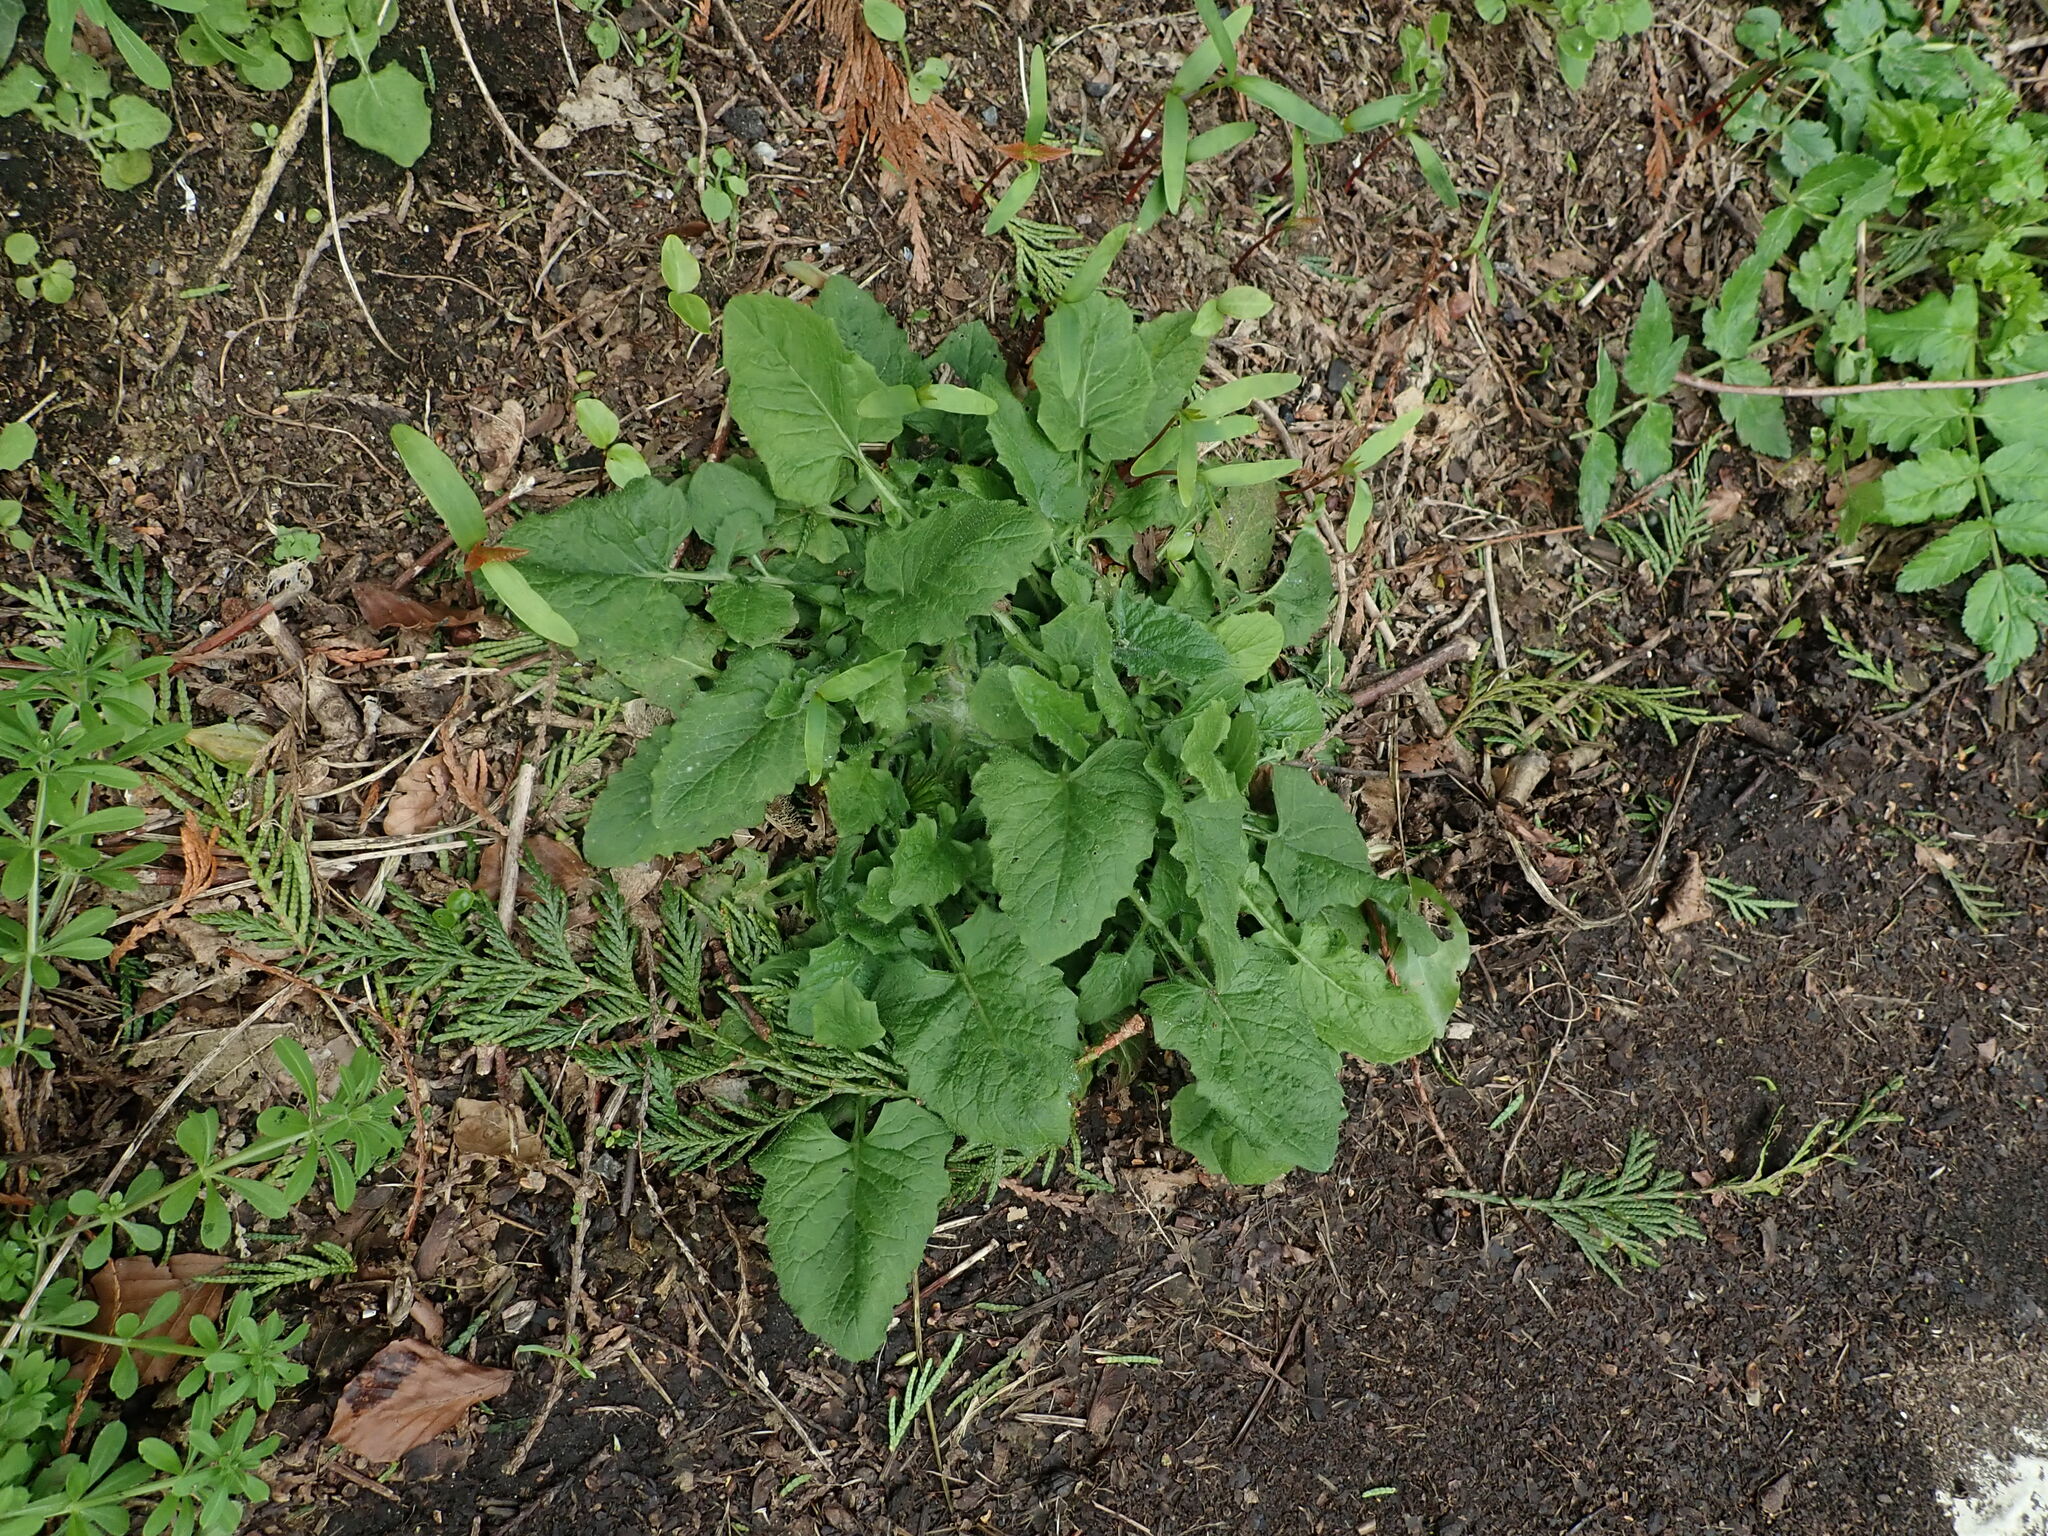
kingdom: Plantae
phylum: Tracheophyta
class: Magnoliopsida
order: Asterales
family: Asteraceae
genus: Lapsana
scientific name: Lapsana communis
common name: Nipplewort
